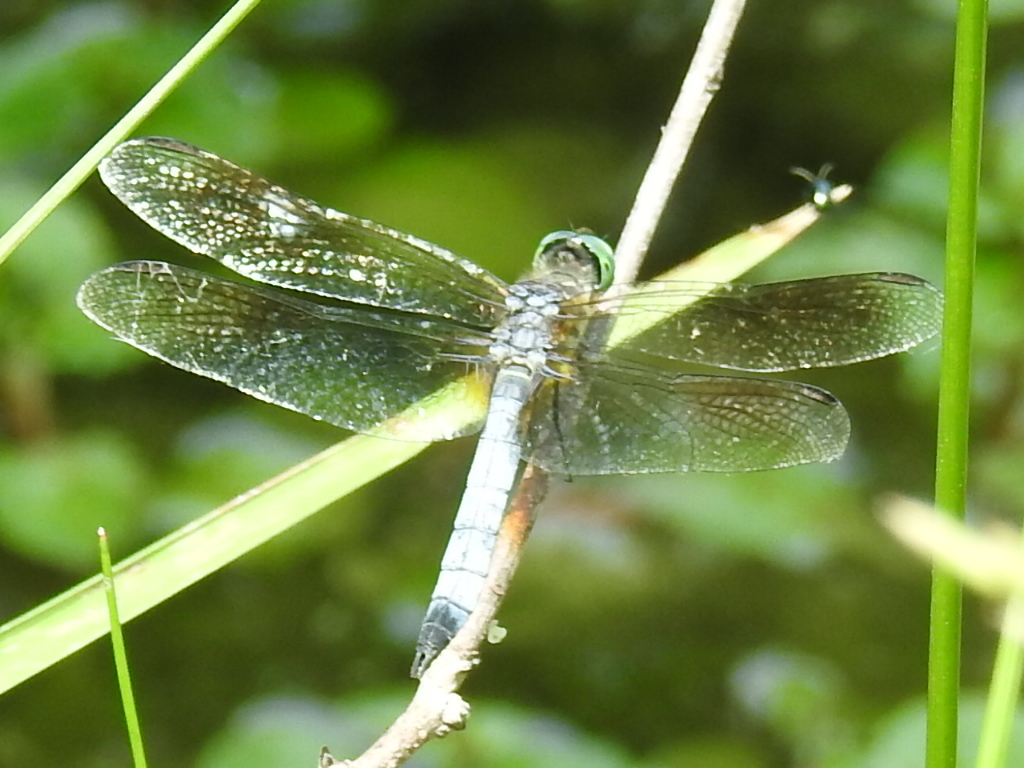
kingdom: Animalia
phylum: Arthropoda
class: Insecta
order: Odonata
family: Libellulidae
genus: Pachydiplax
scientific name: Pachydiplax longipennis
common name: Blue dasher
